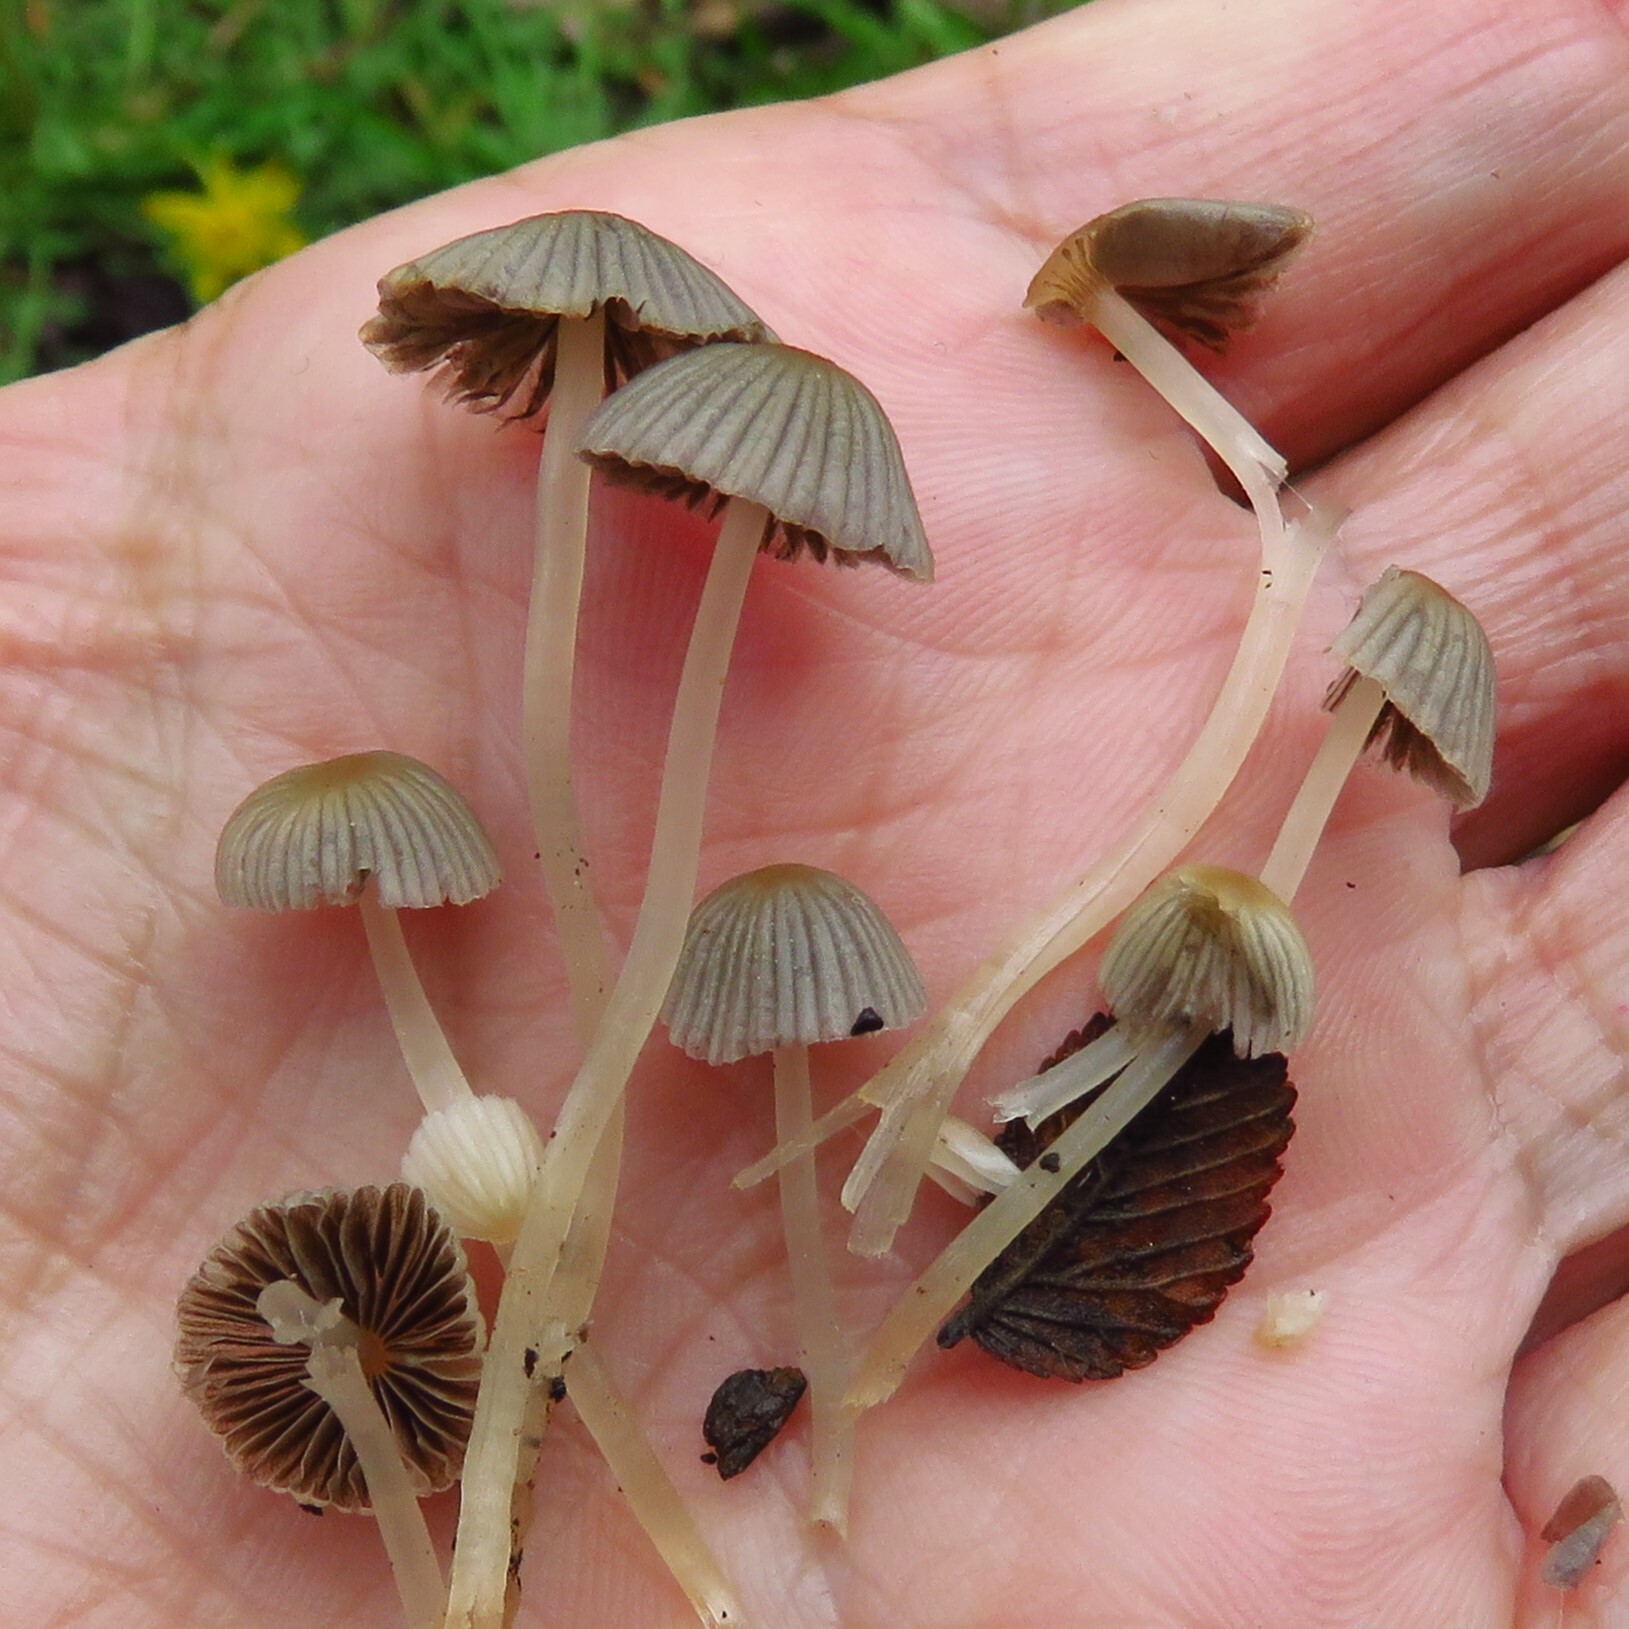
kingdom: Fungi
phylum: Basidiomycota
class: Agaricomycetes
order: Agaricales
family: Psathyrellaceae
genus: Coprinellus
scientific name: Coprinellus disseminatus
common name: Fairies' bonnets
